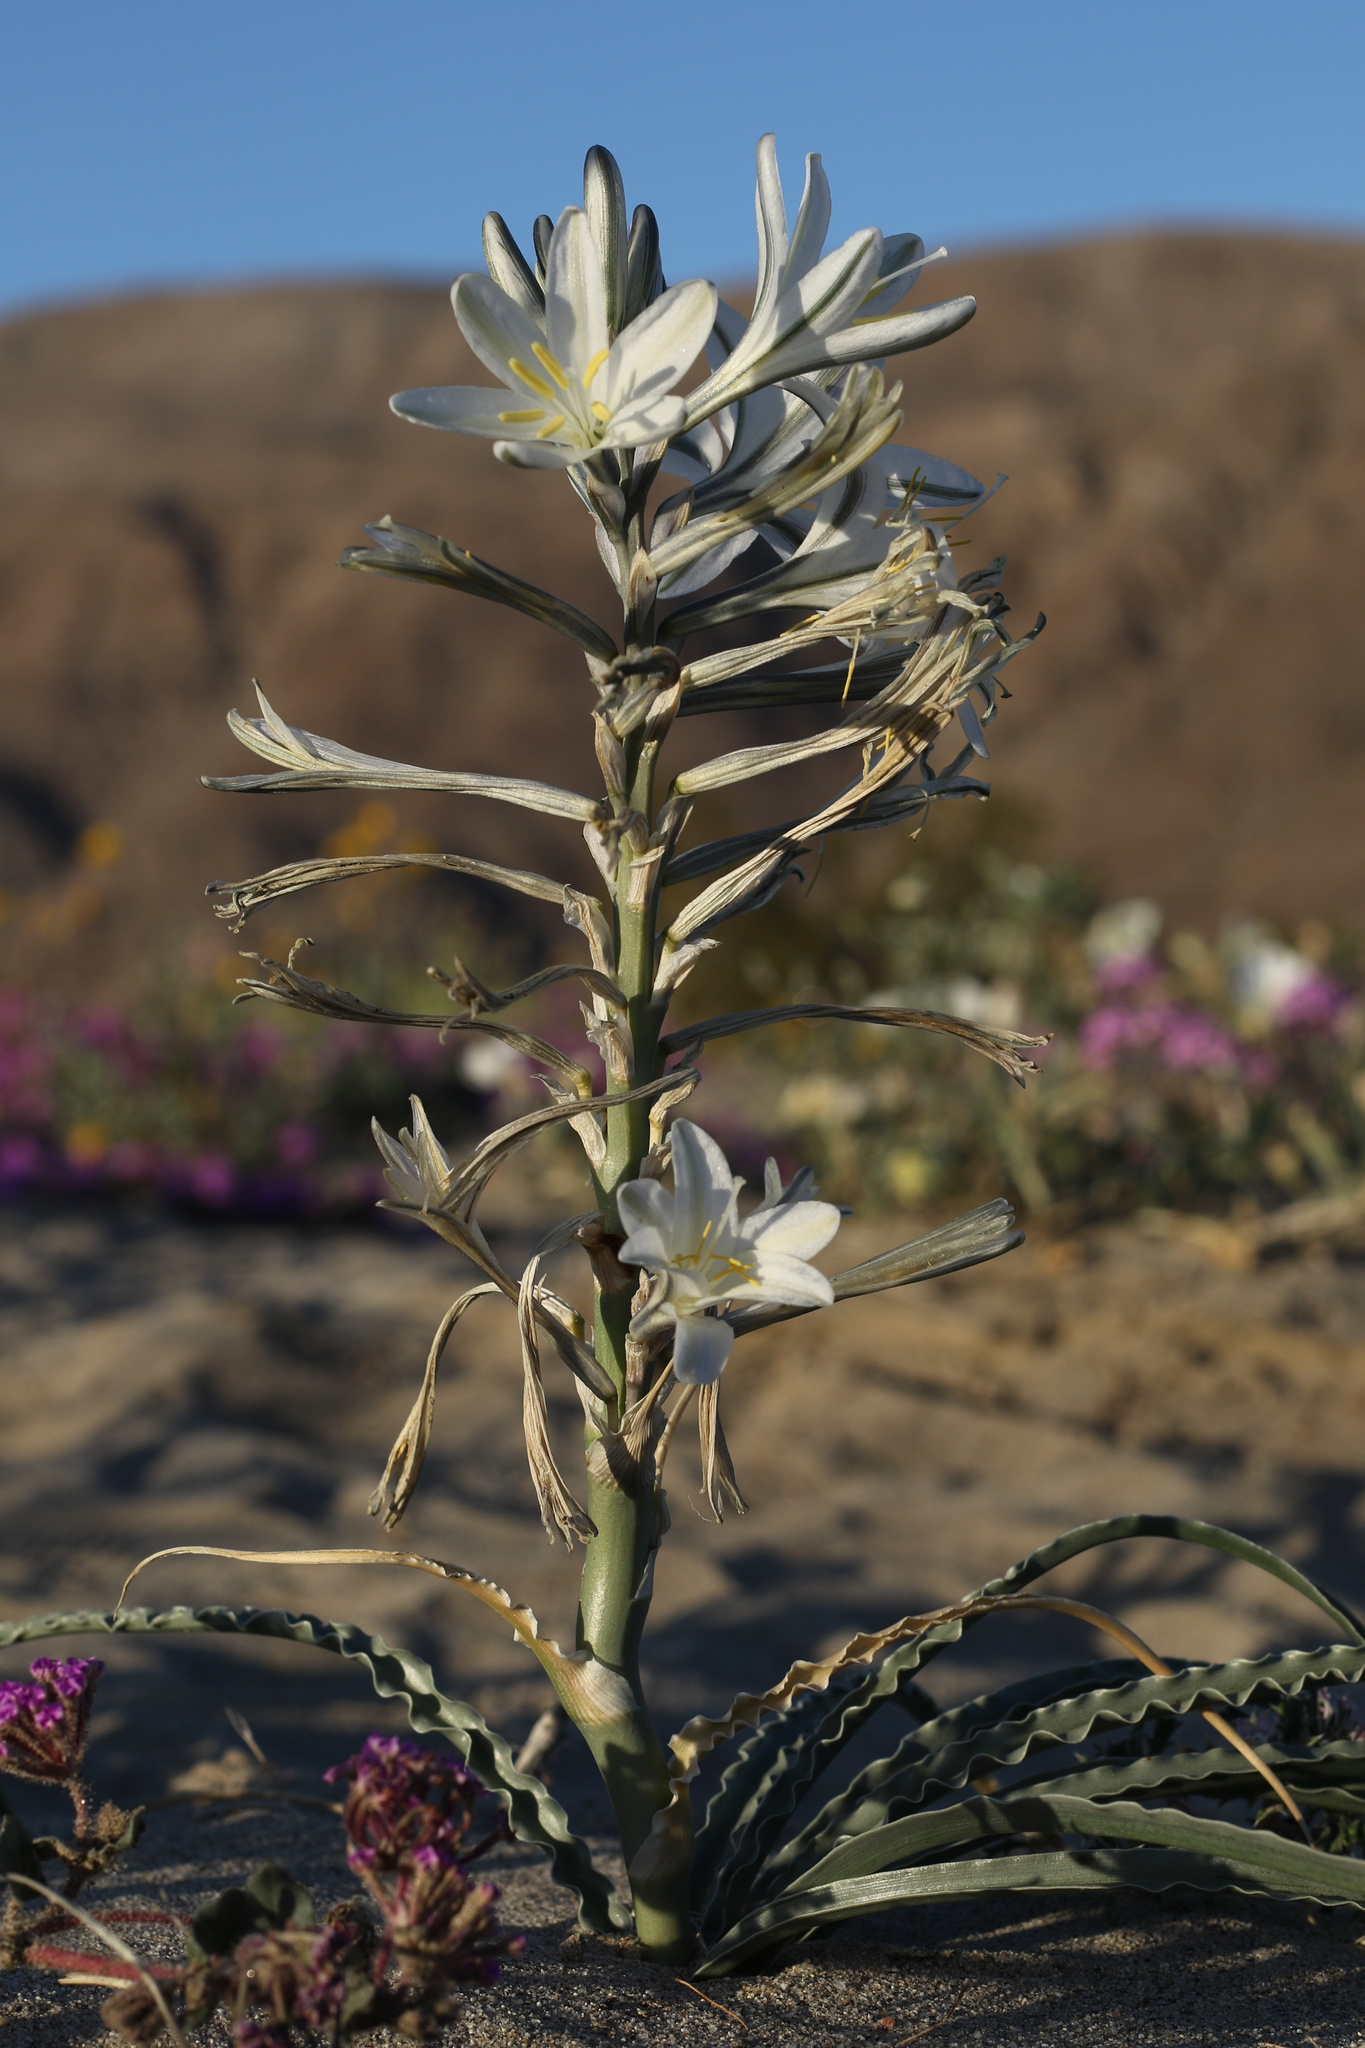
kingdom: Plantae
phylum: Tracheophyta
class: Liliopsida
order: Asparagales
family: Asparagaceae
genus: Hesperocallis
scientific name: Hesperocallis undulata
